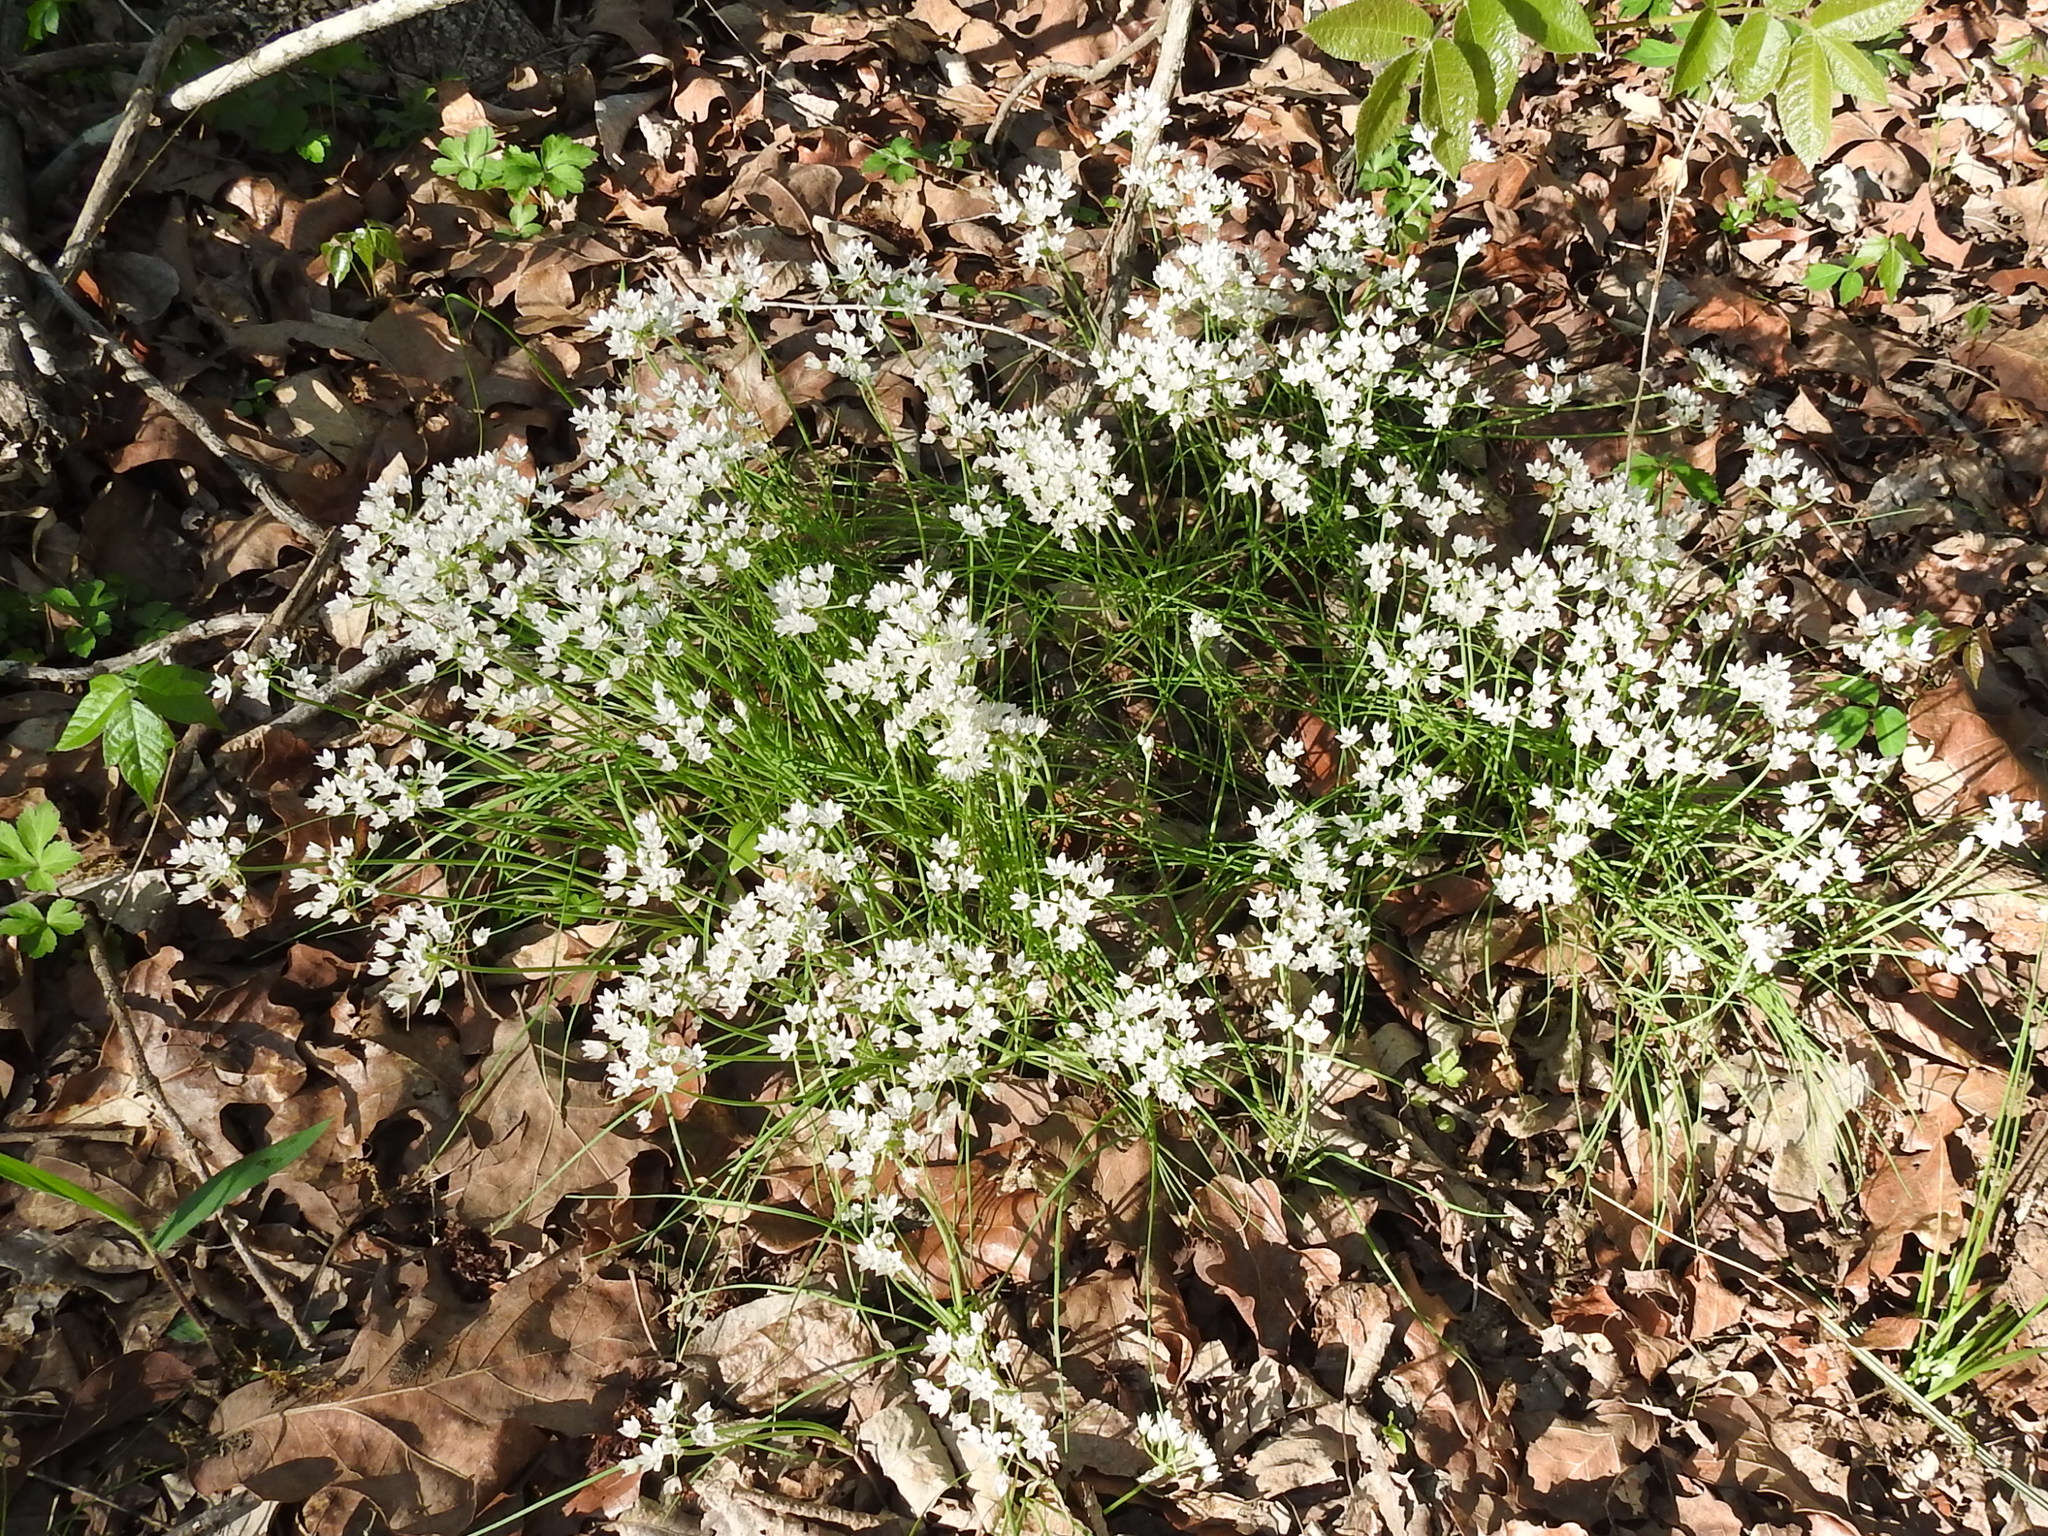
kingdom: Plantae
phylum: Tracheophyta
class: Liliopsida
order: Asparagales
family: Amaryllidaceae
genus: Allium
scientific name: Allium drummondii
